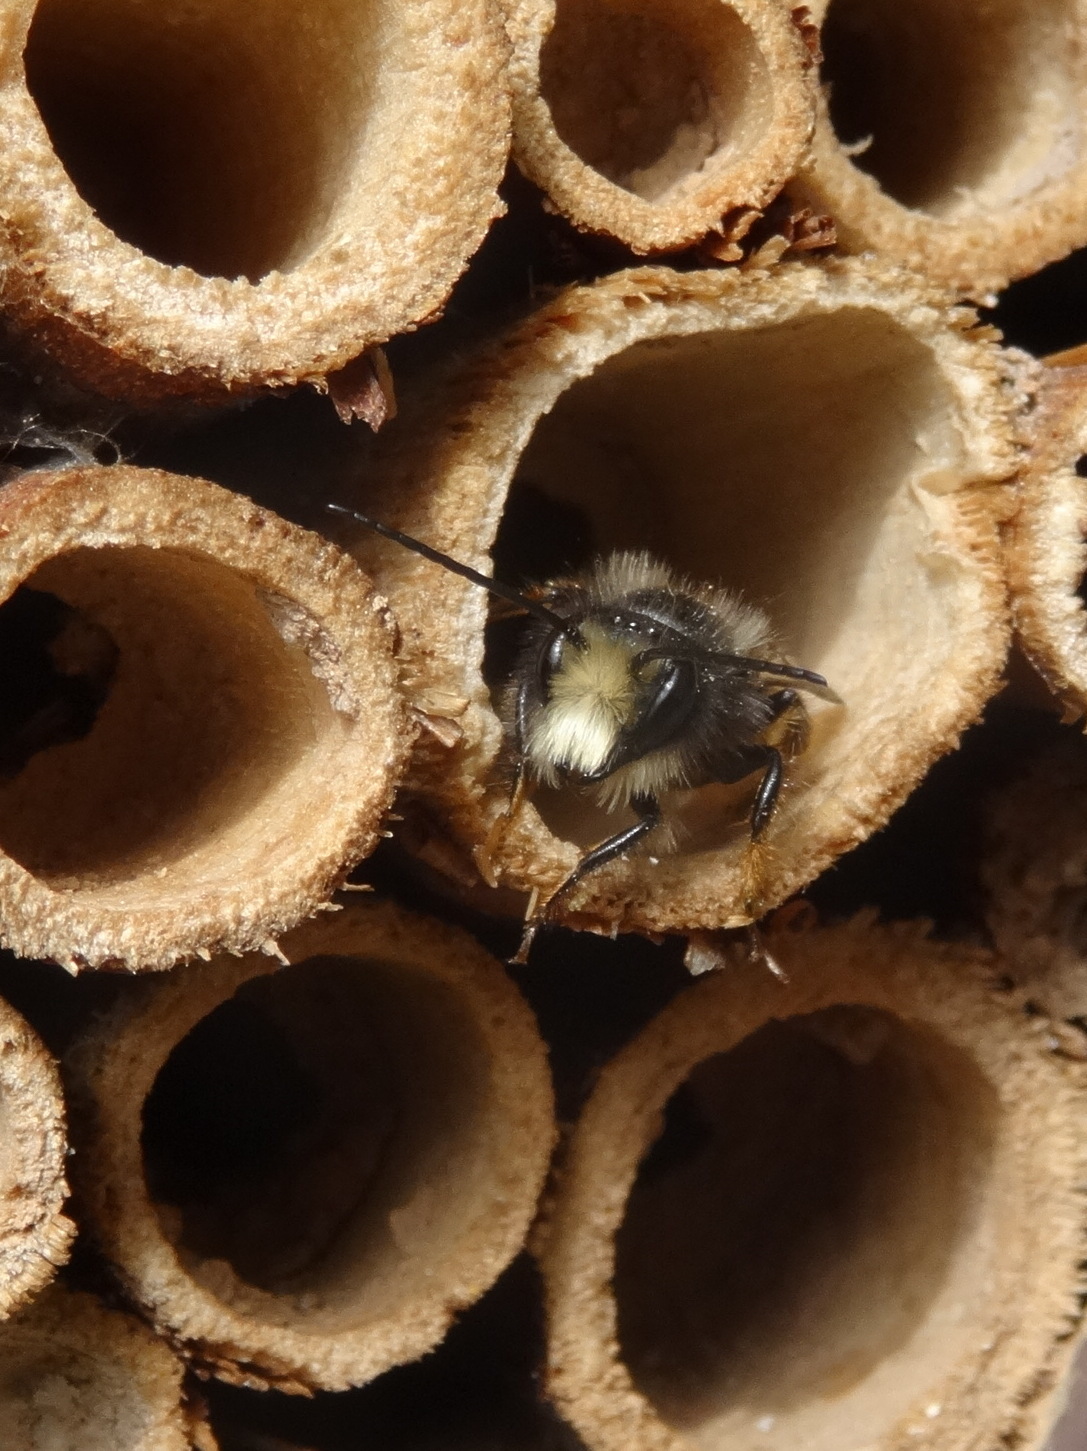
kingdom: Animalia
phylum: Arthropoda
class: Insecta
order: Hymenoptera
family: Megachilidae
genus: Osmia
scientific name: Osmia cornuta
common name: Mason bee
